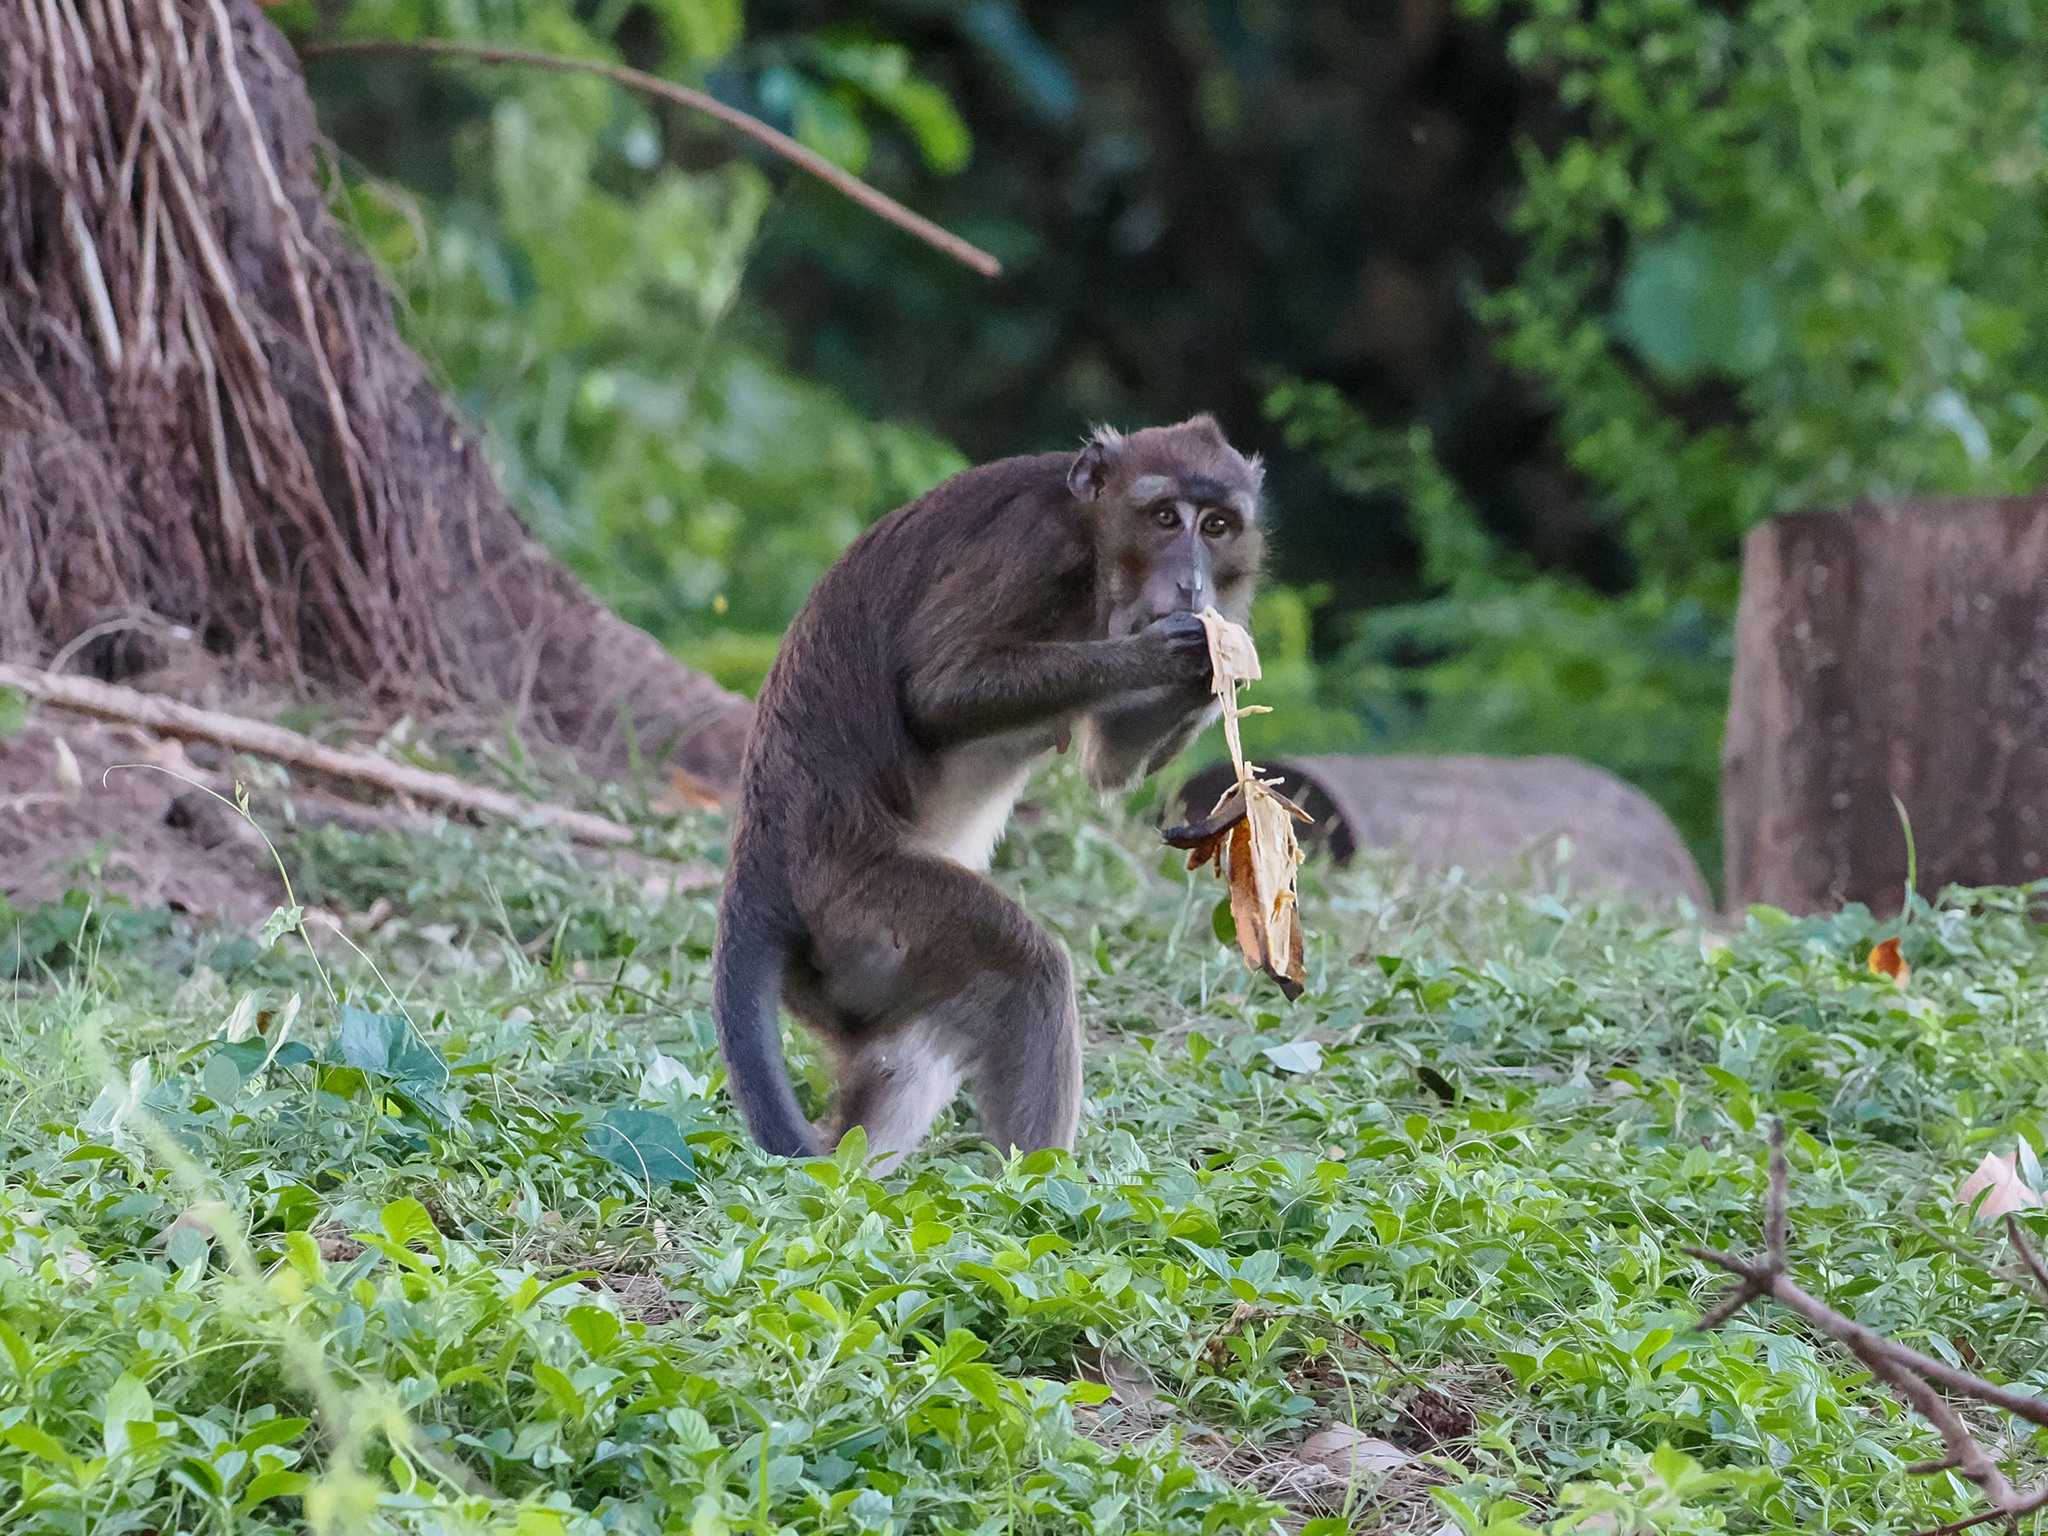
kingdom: Animalia
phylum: Chordata
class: Mammalia
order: Primates
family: Cercopithecidae
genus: Macaca
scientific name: Macaca fascicularis
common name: Crab-eating macaque
